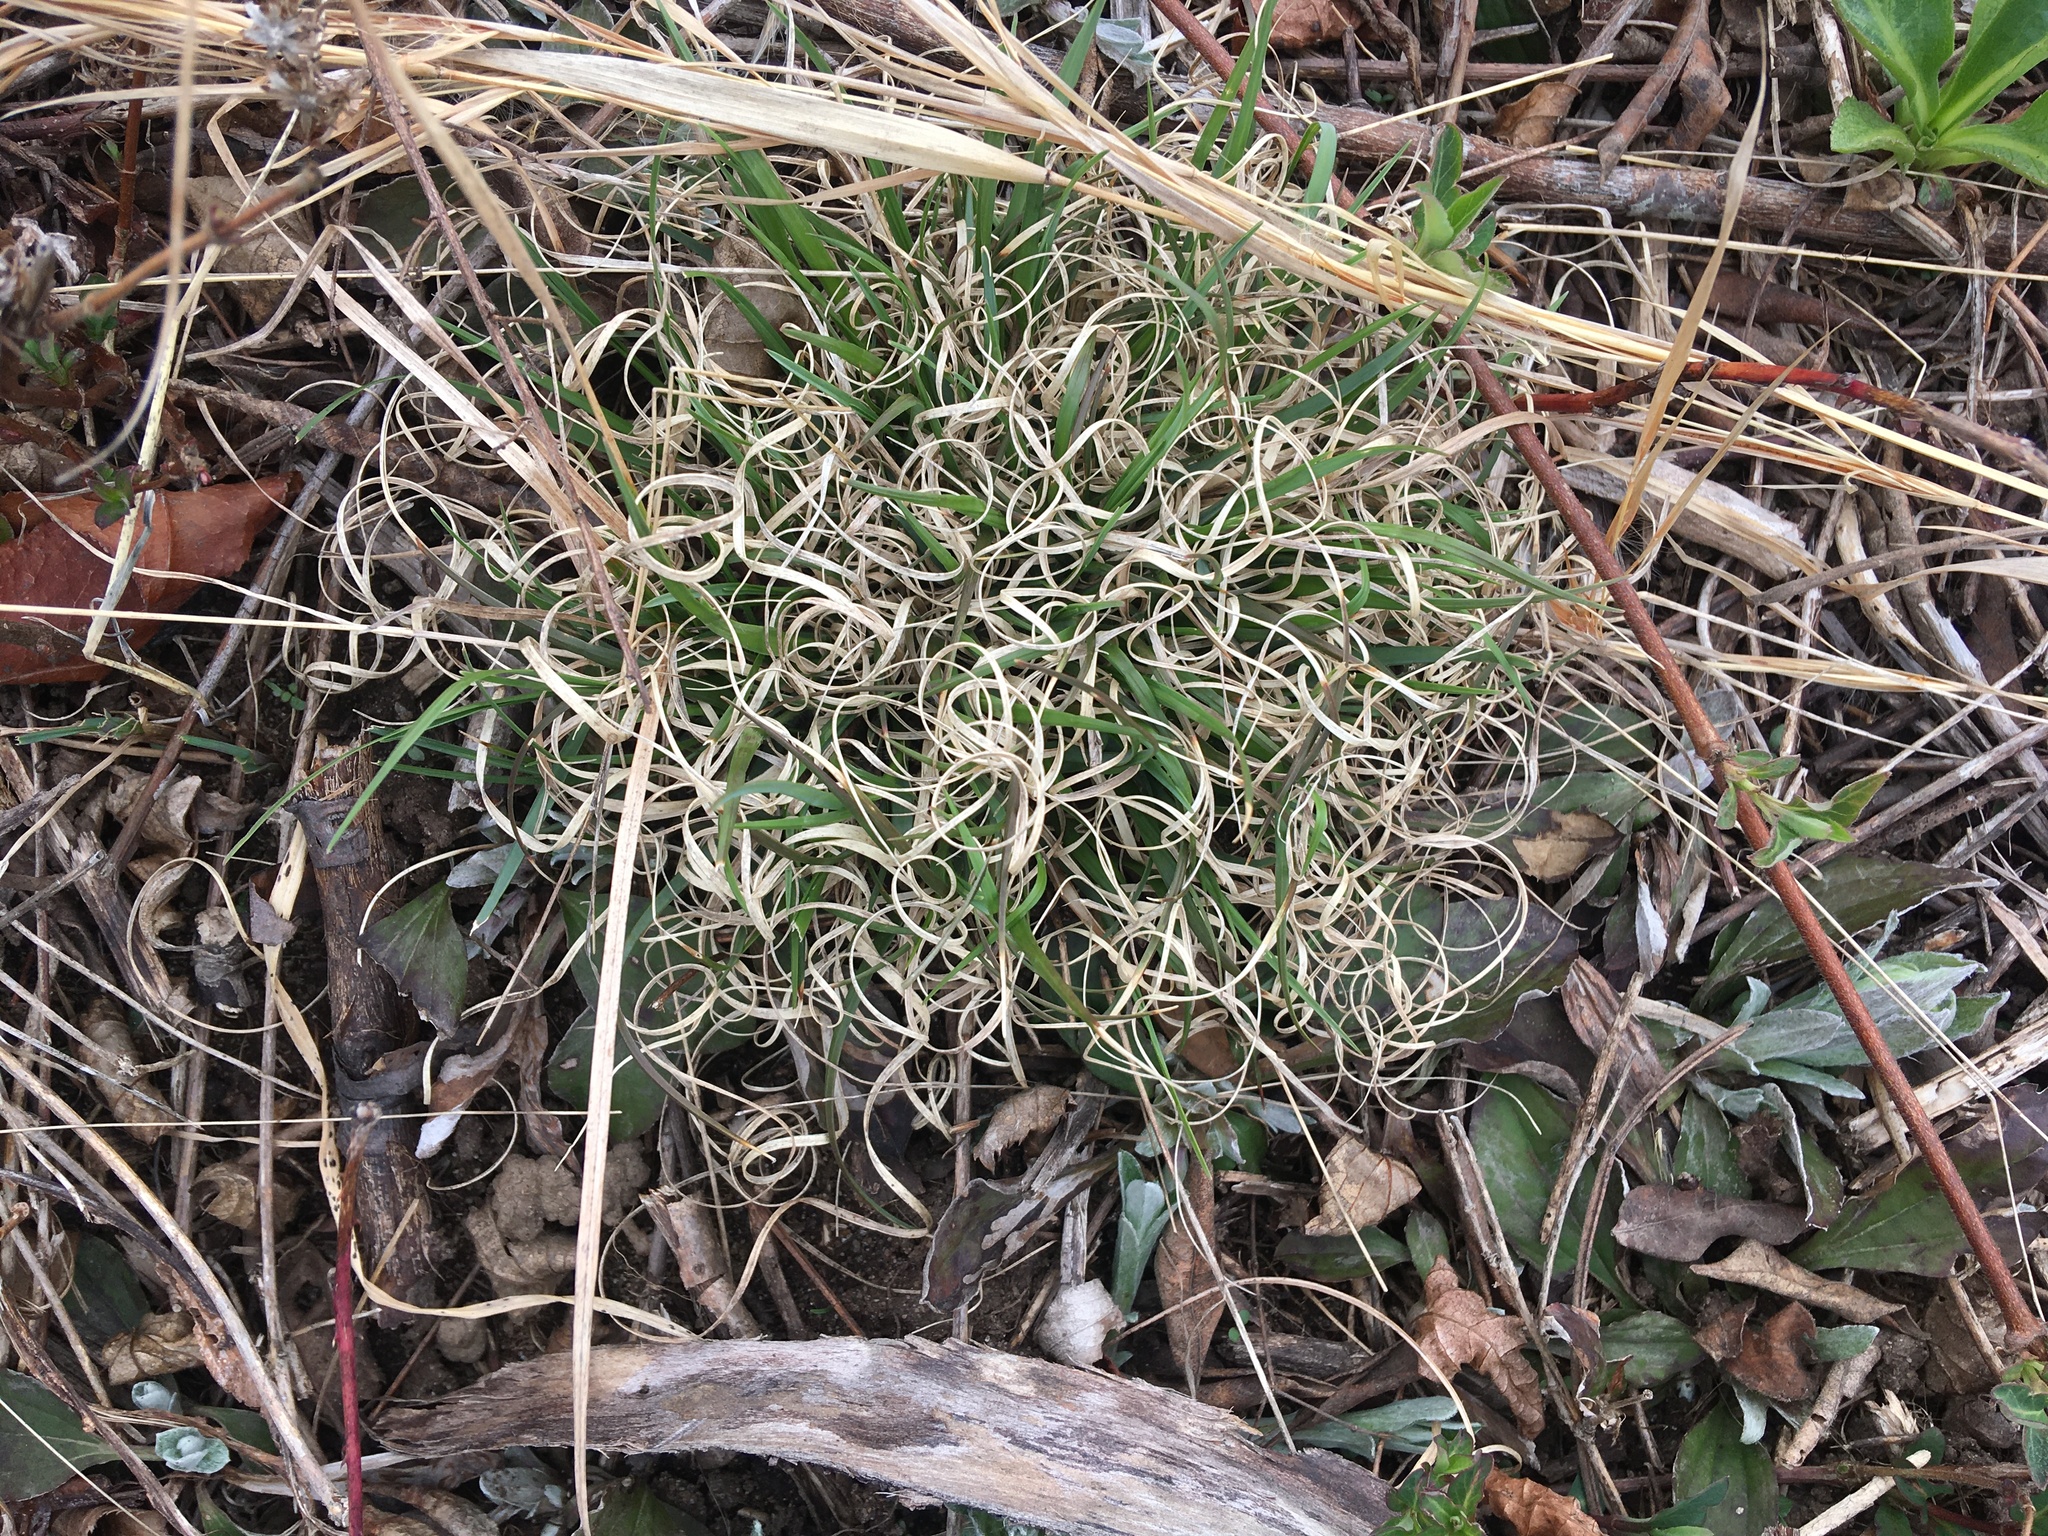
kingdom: Plantae
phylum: Tracheophyta
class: Liliopsida
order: Poales
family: Poaceae
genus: Danthonia
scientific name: Danthonia spicata
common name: Common wild oatgrass
